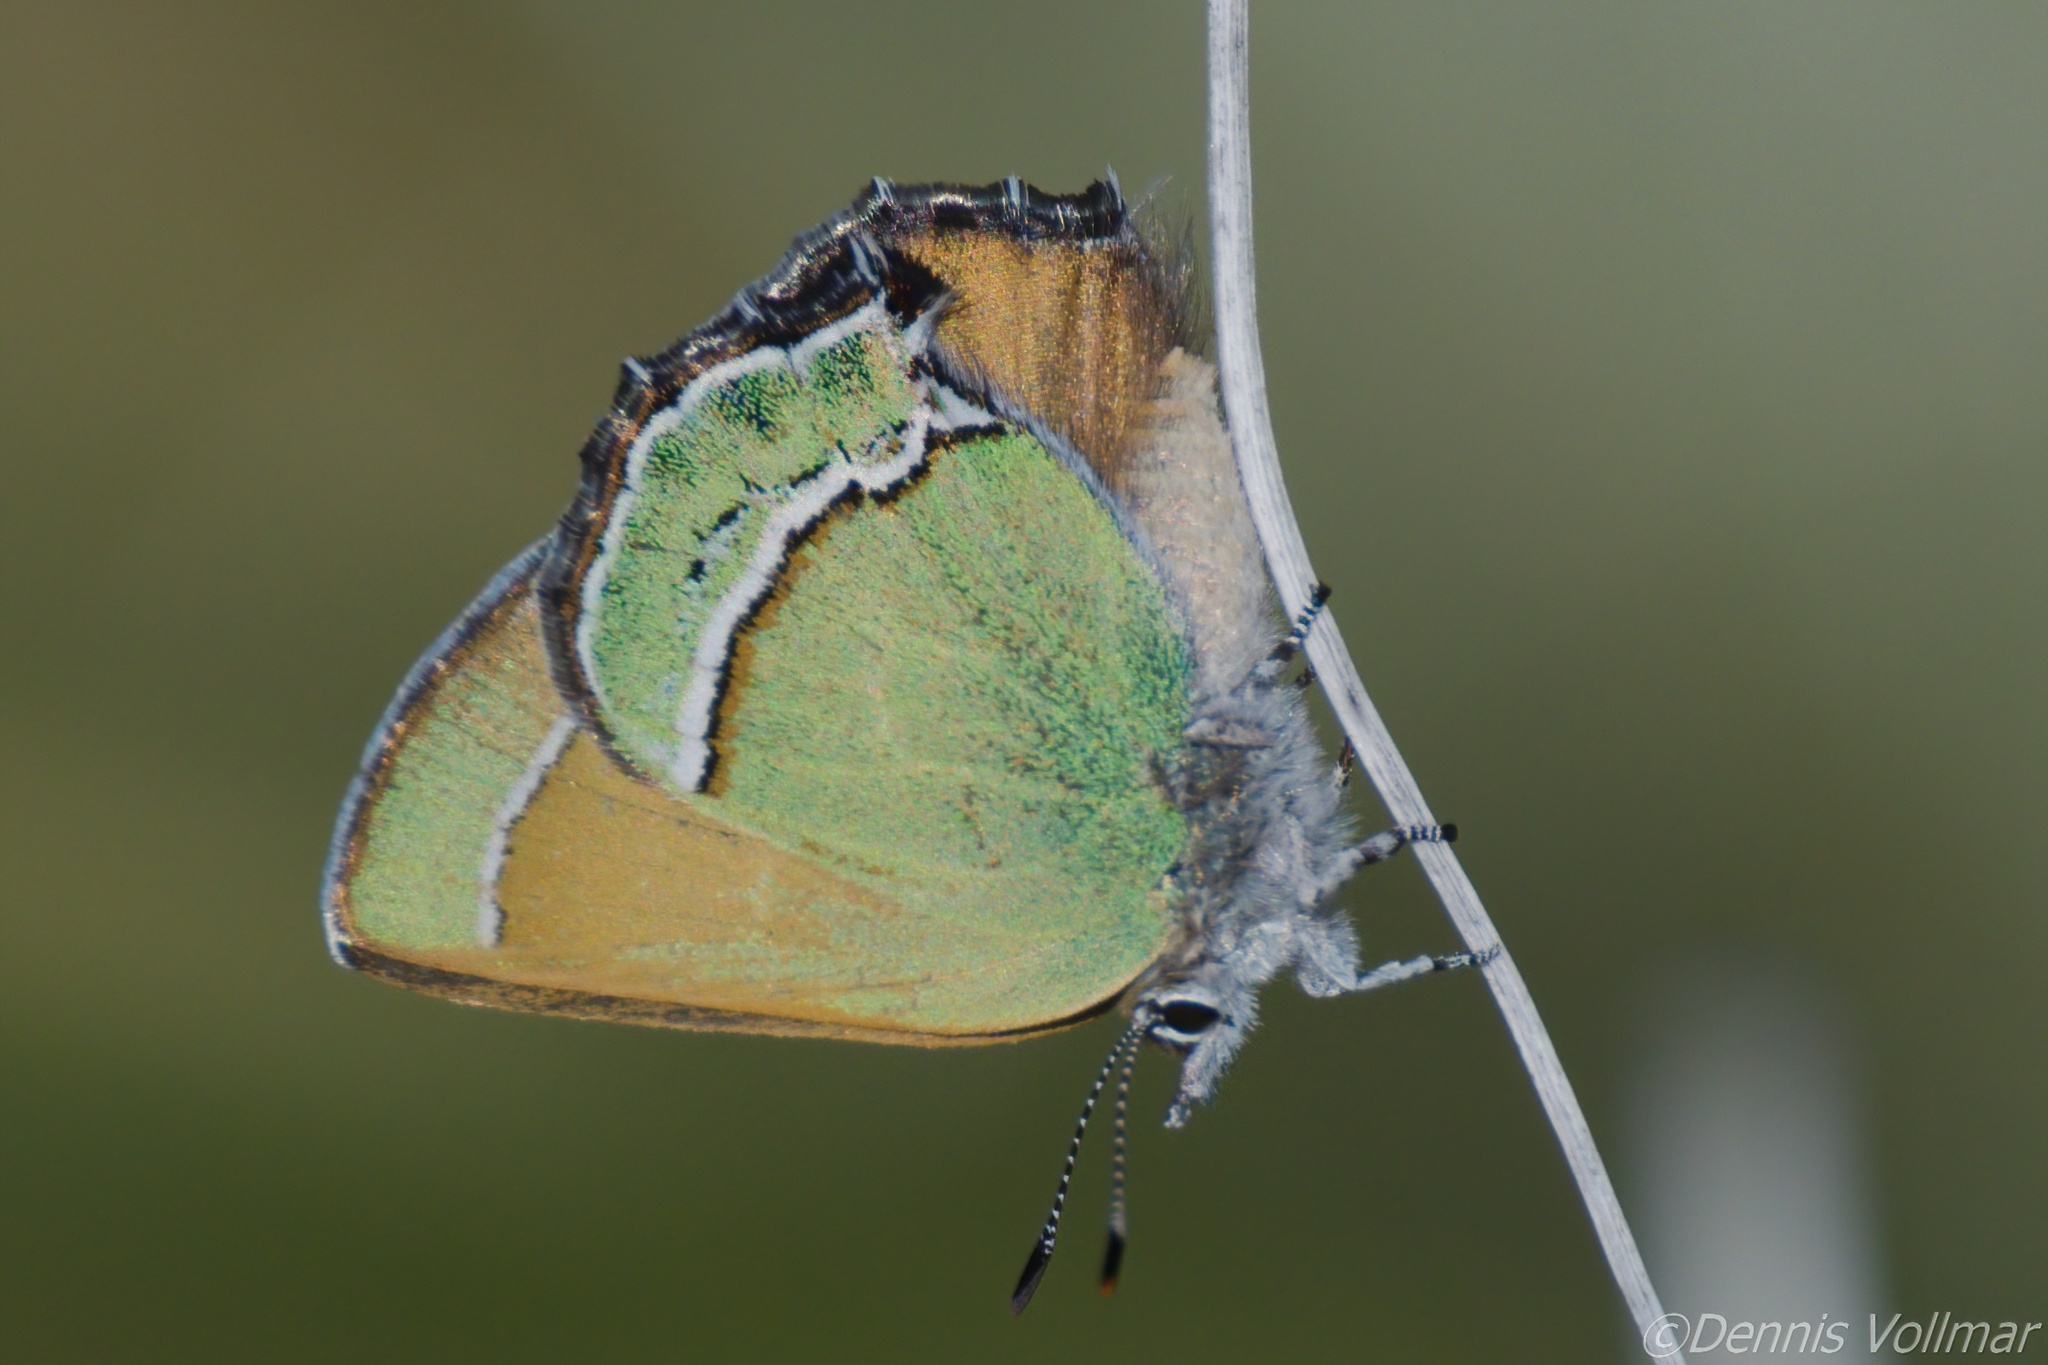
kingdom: Animalia
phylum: Arthropoda
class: Insecta
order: Lepidoptera
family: Lycaenidae
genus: Sandia
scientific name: Sandia mcfarlandi
